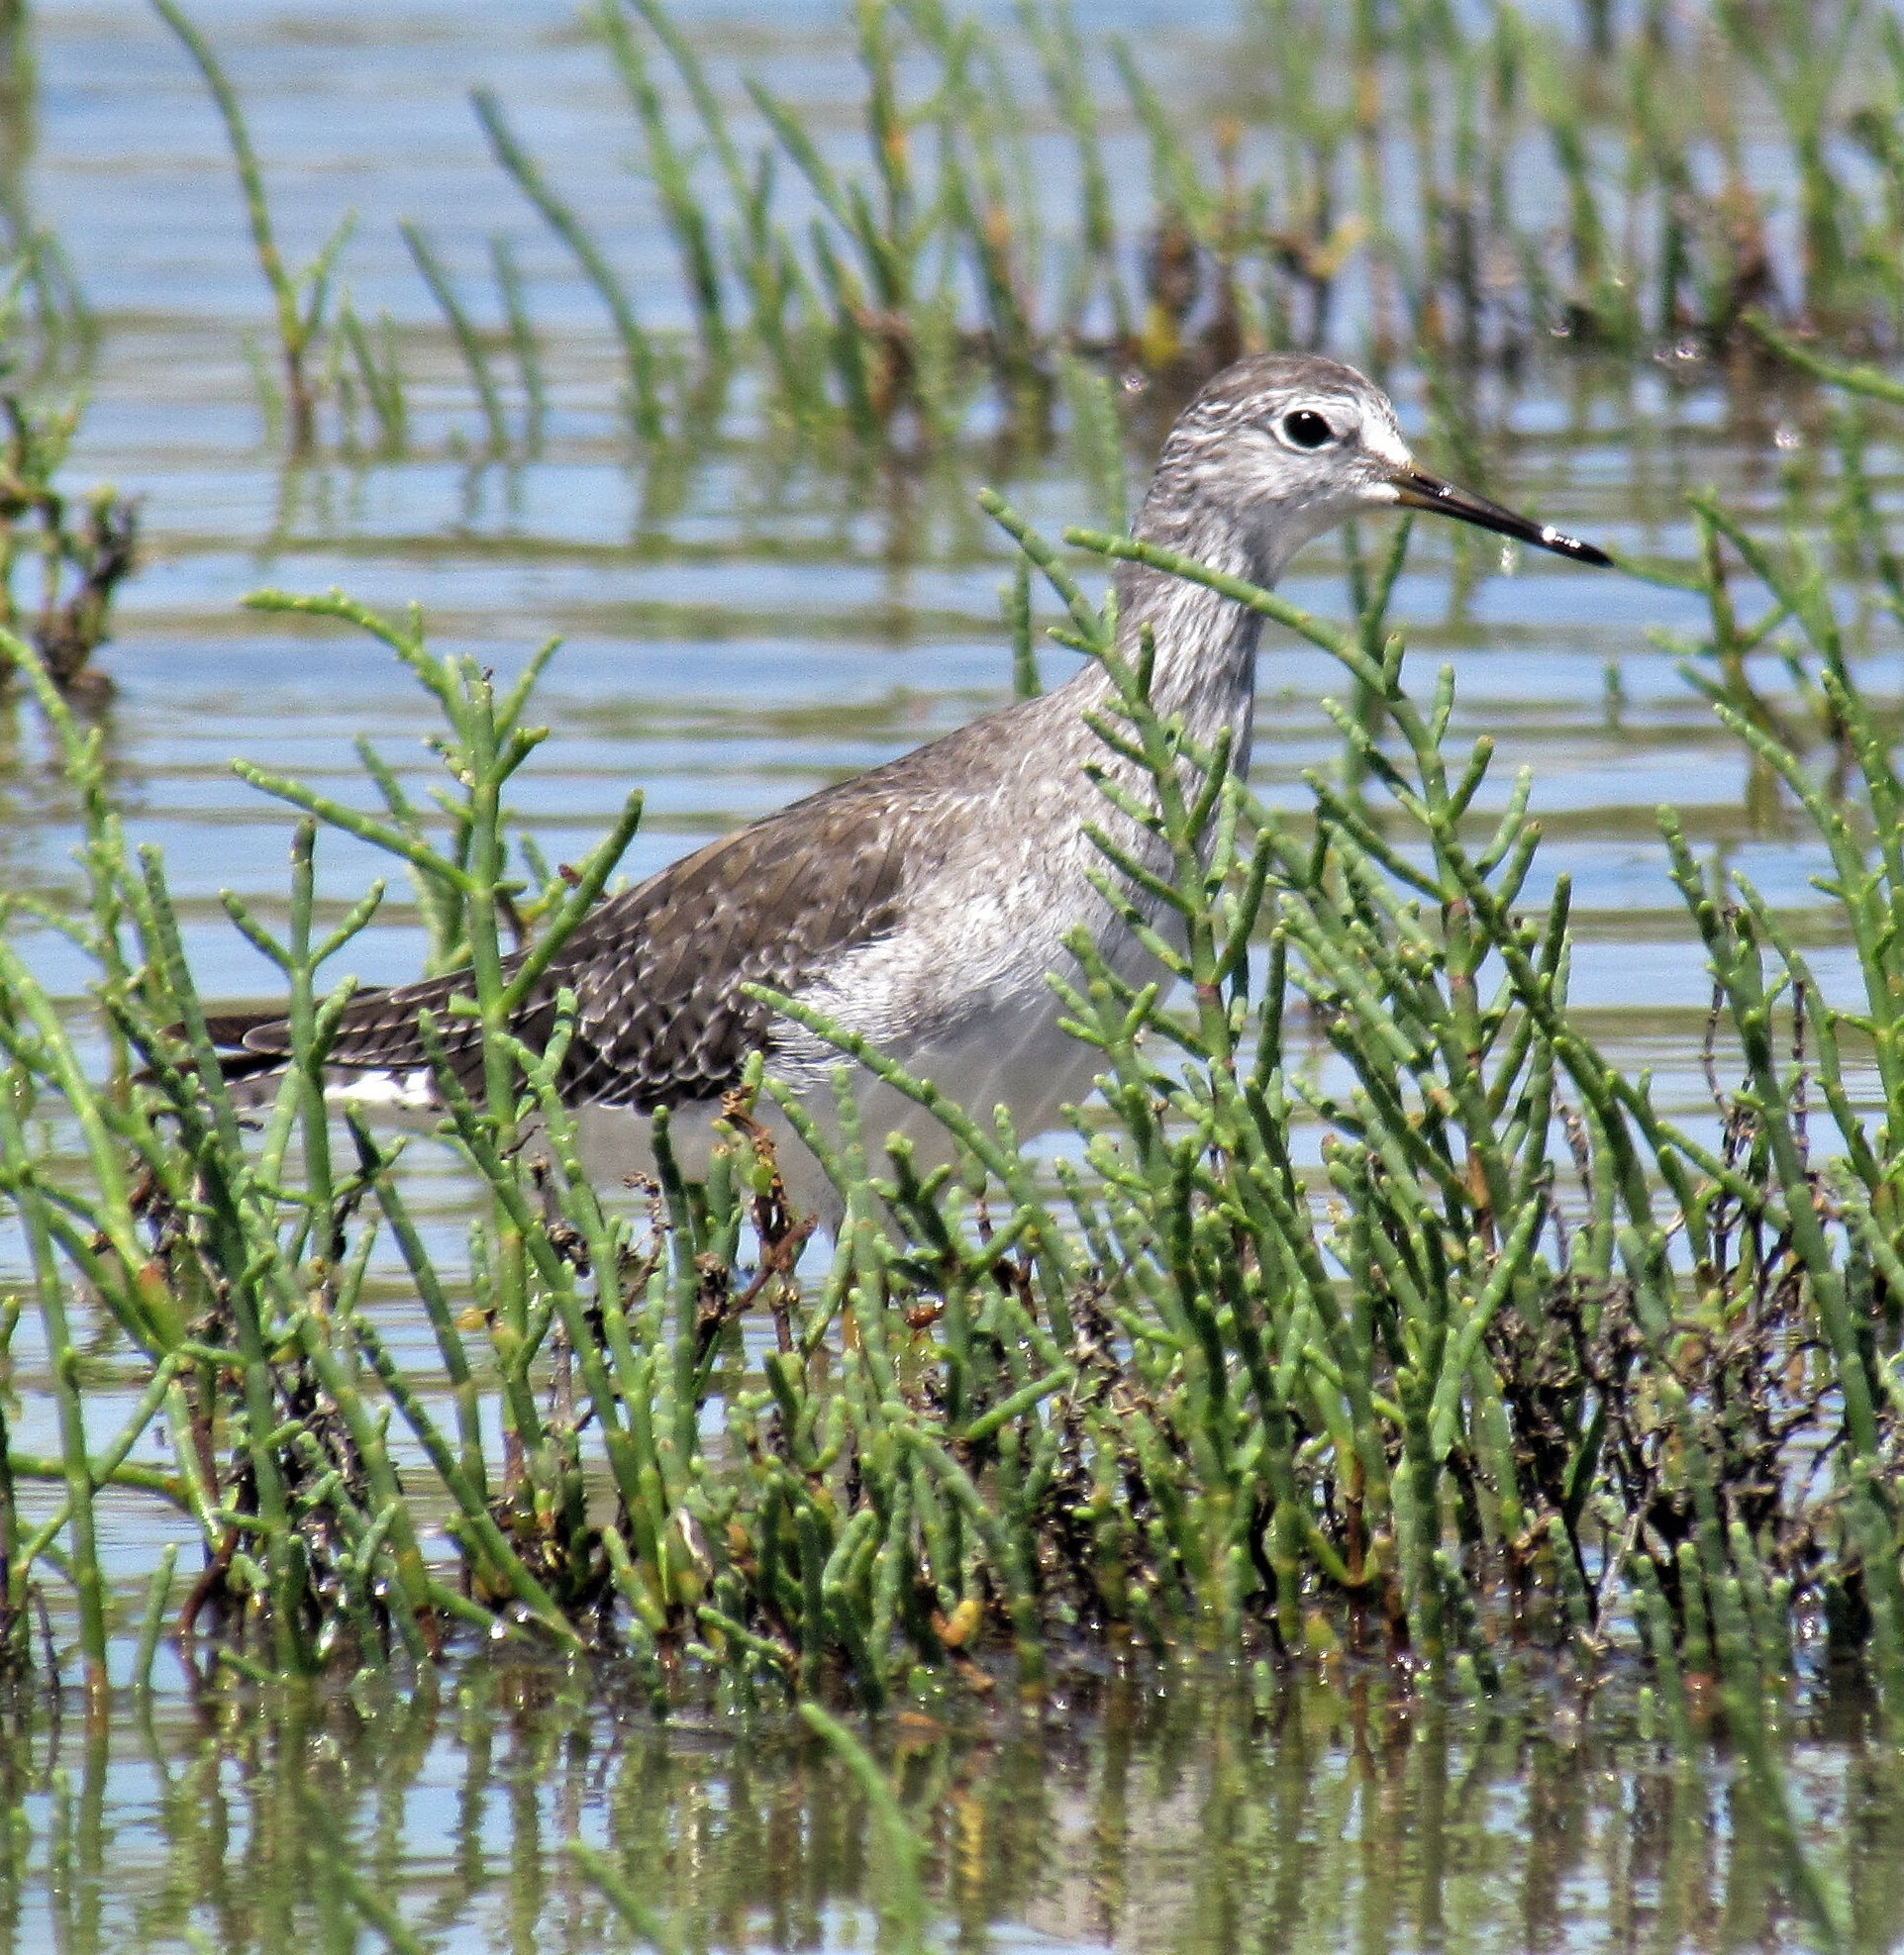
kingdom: Animalia
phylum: Chordata
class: Aves
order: Charadriiformes
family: Scolopacidae
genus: Tringa
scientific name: Tringa flavipes
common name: Lesser yellowlegs
